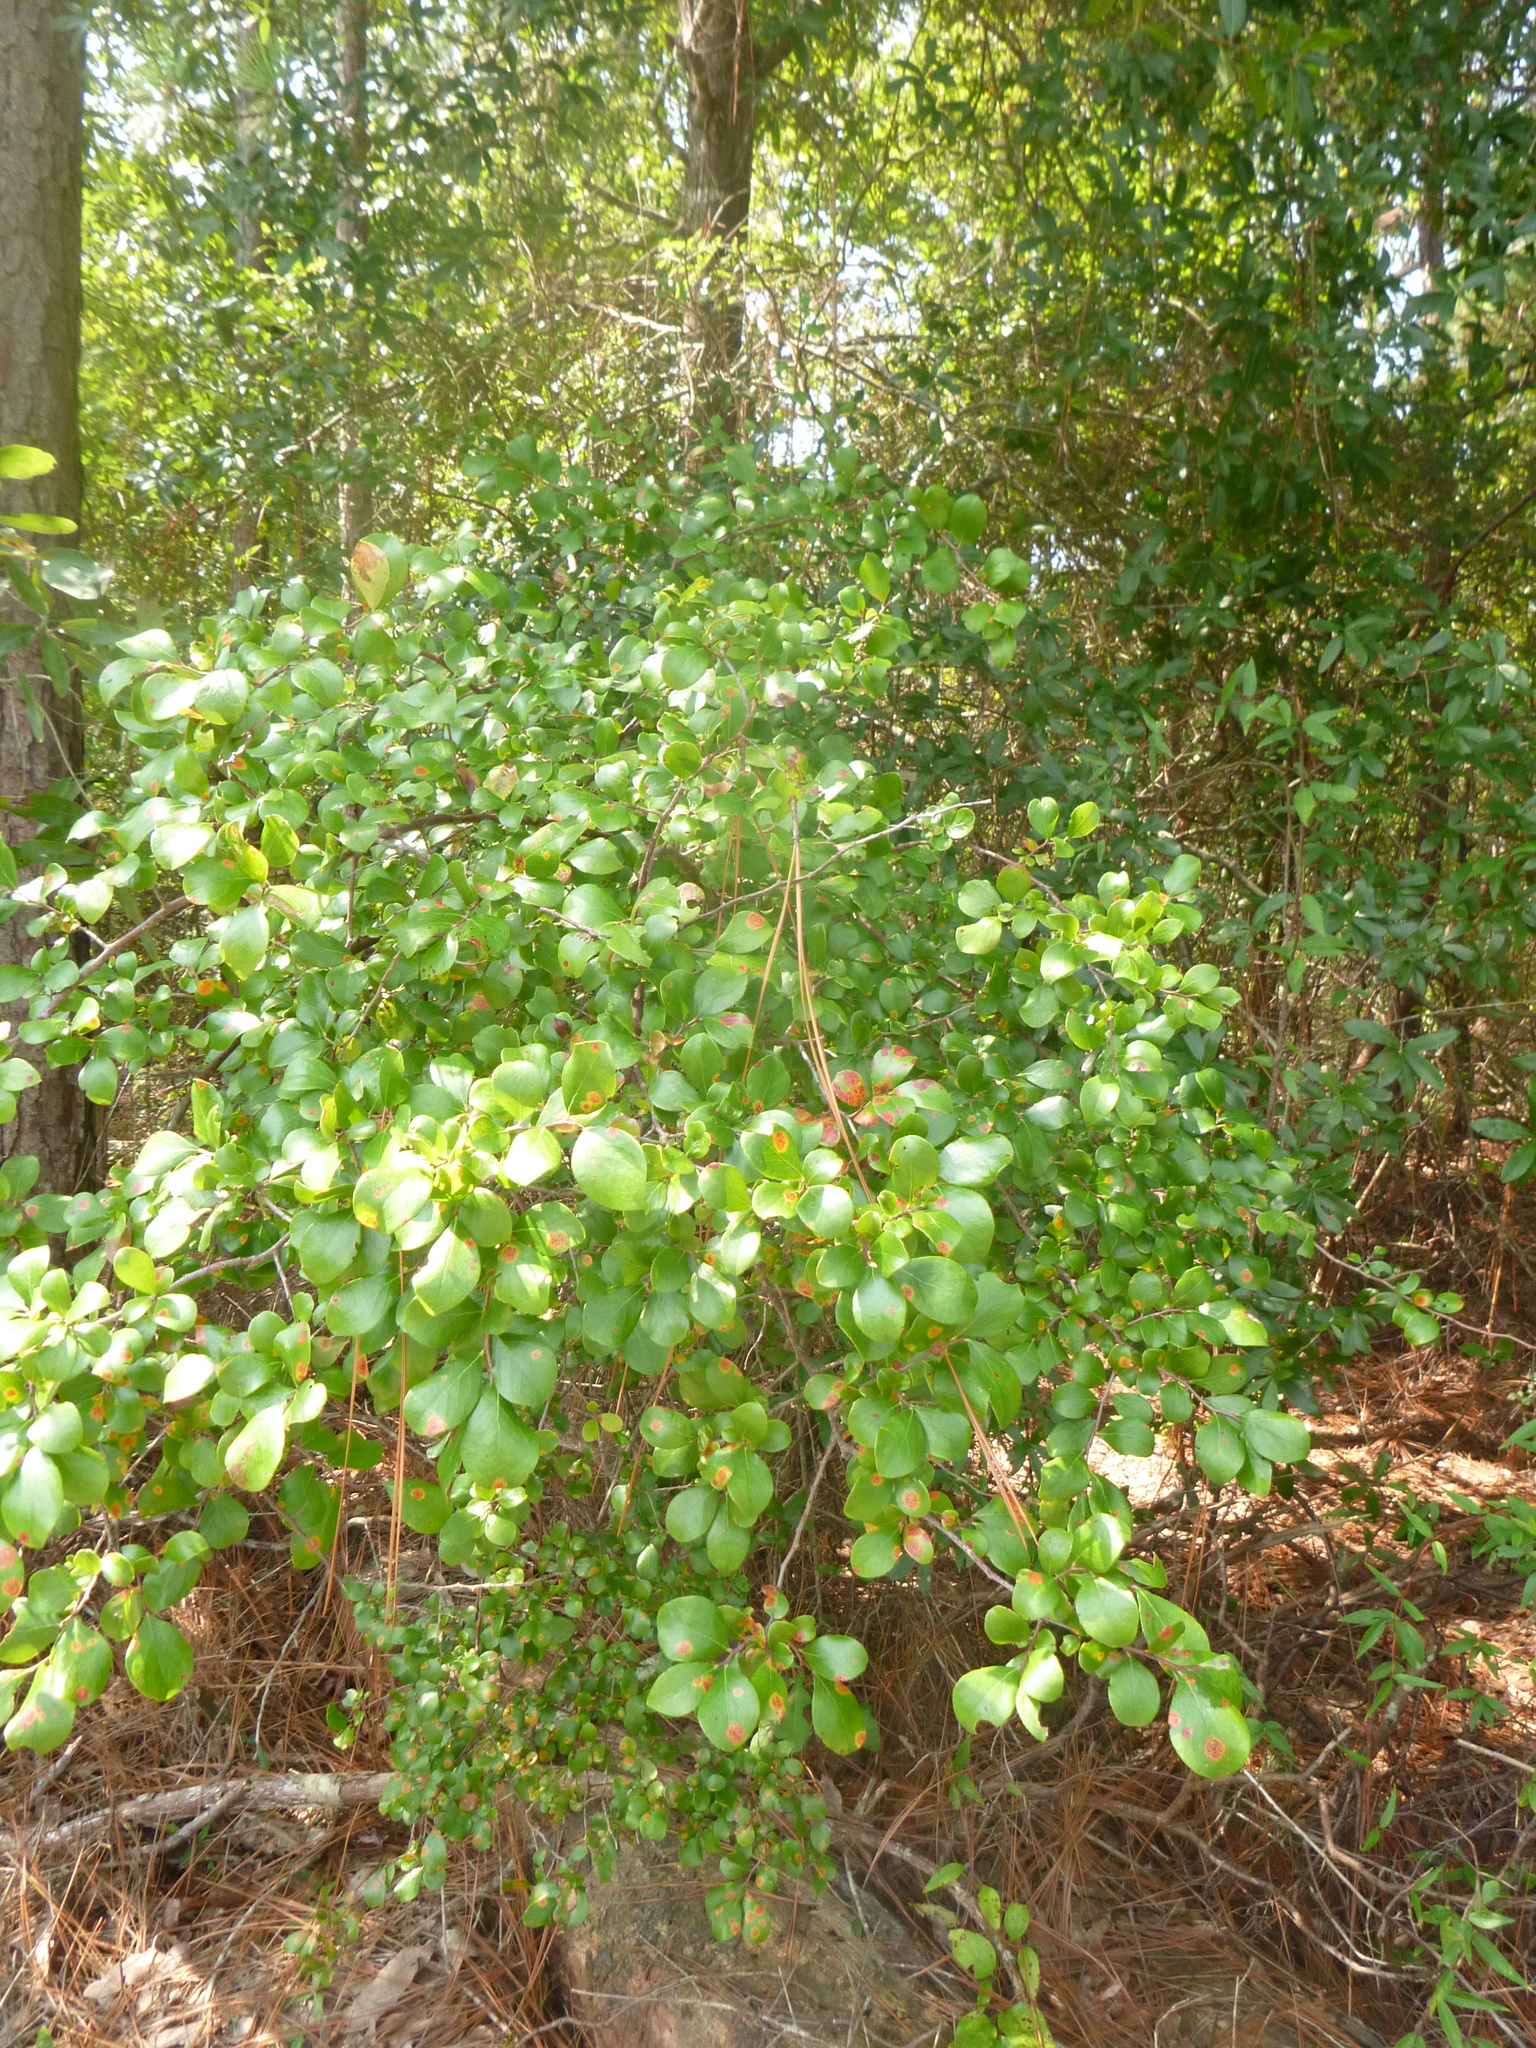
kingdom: Plantae
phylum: Tracheophyta
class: Magnoliopsida
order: Ericales
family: Ericaceae
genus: Vaccinium
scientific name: Vaccinium arboreum
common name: Farkleberry
